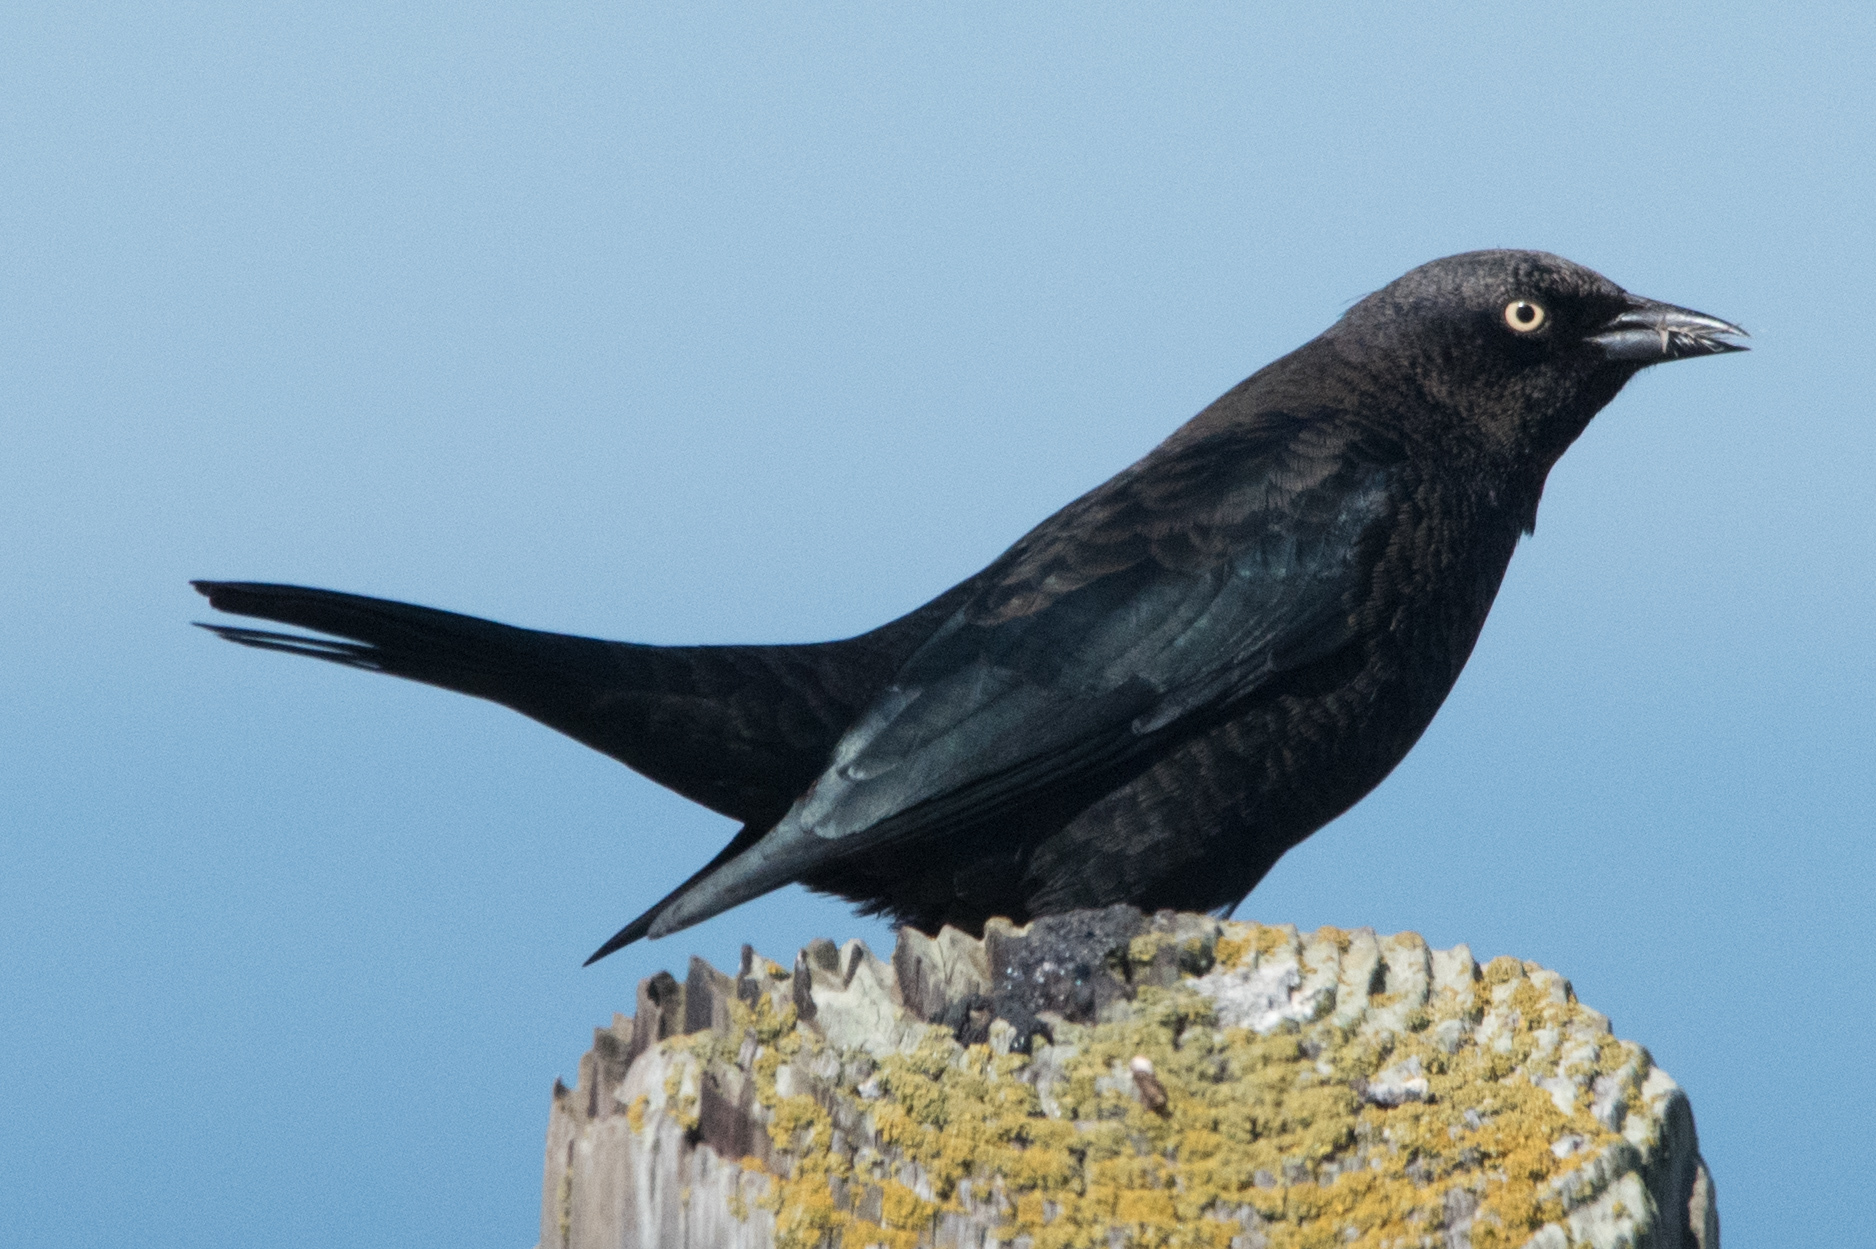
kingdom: Animalia
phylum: Chordata
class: Aves
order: Passeriformes
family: Icteridae
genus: Euphagus
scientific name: Euphagus cyanocephalus
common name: Brewer's blackbird
